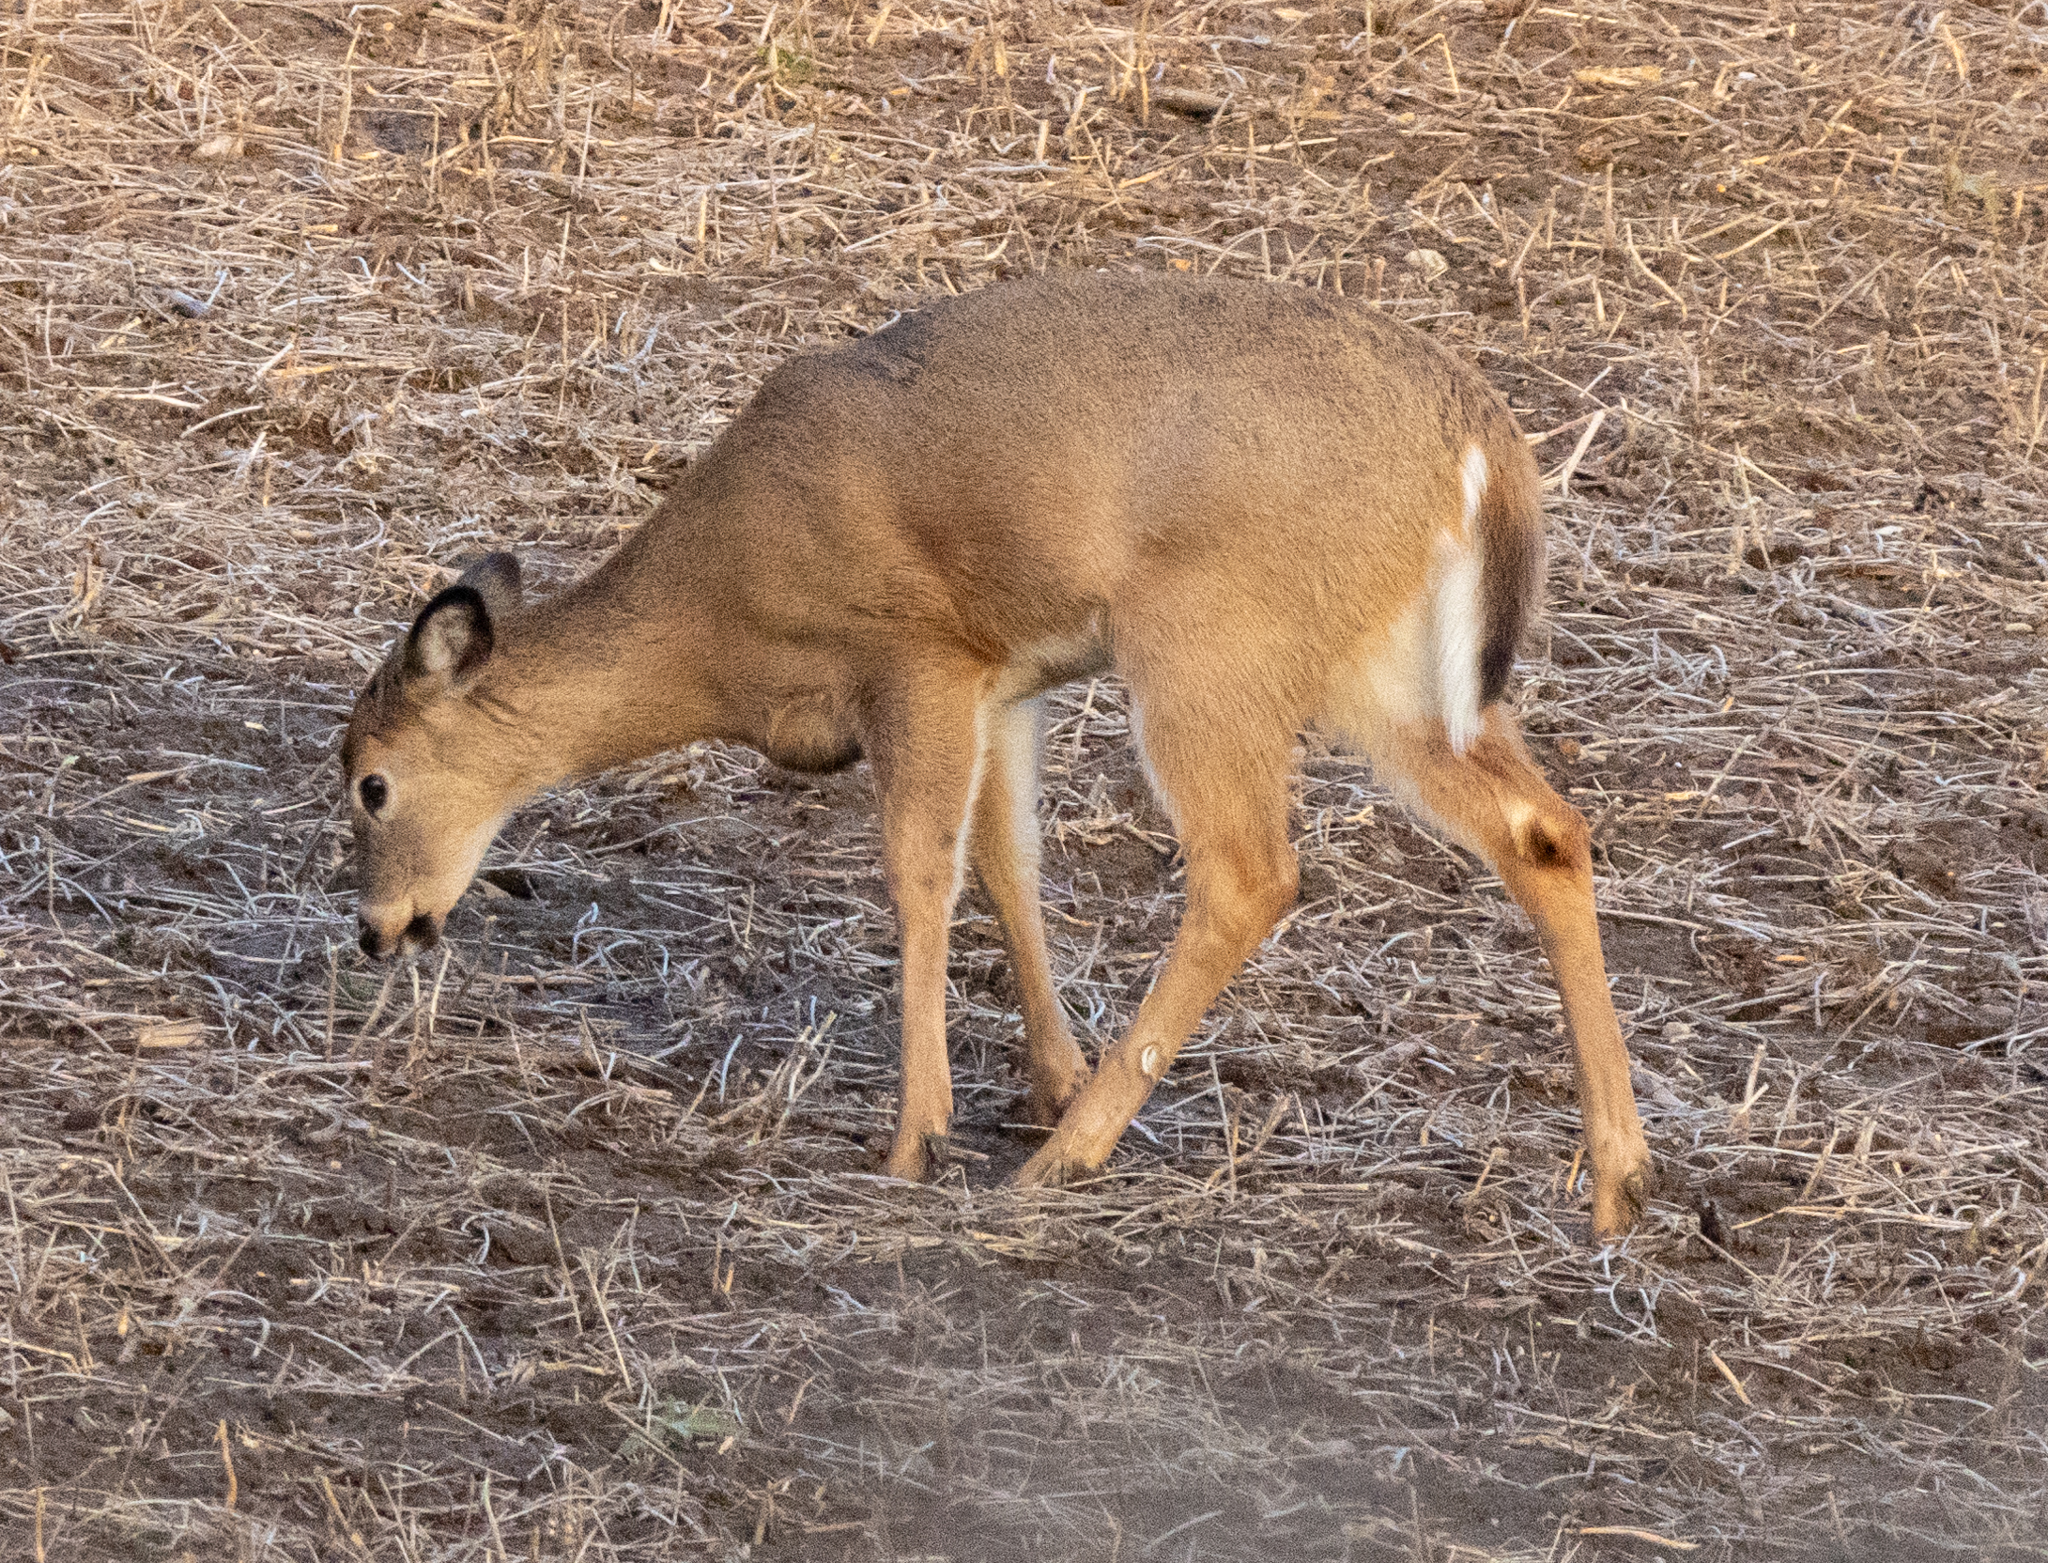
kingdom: Animalia
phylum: Chordata
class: Mammalia
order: Artiodactyla
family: Cervidae
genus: Odocoileus
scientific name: Odocoileus virginianus
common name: White-tailed deer
